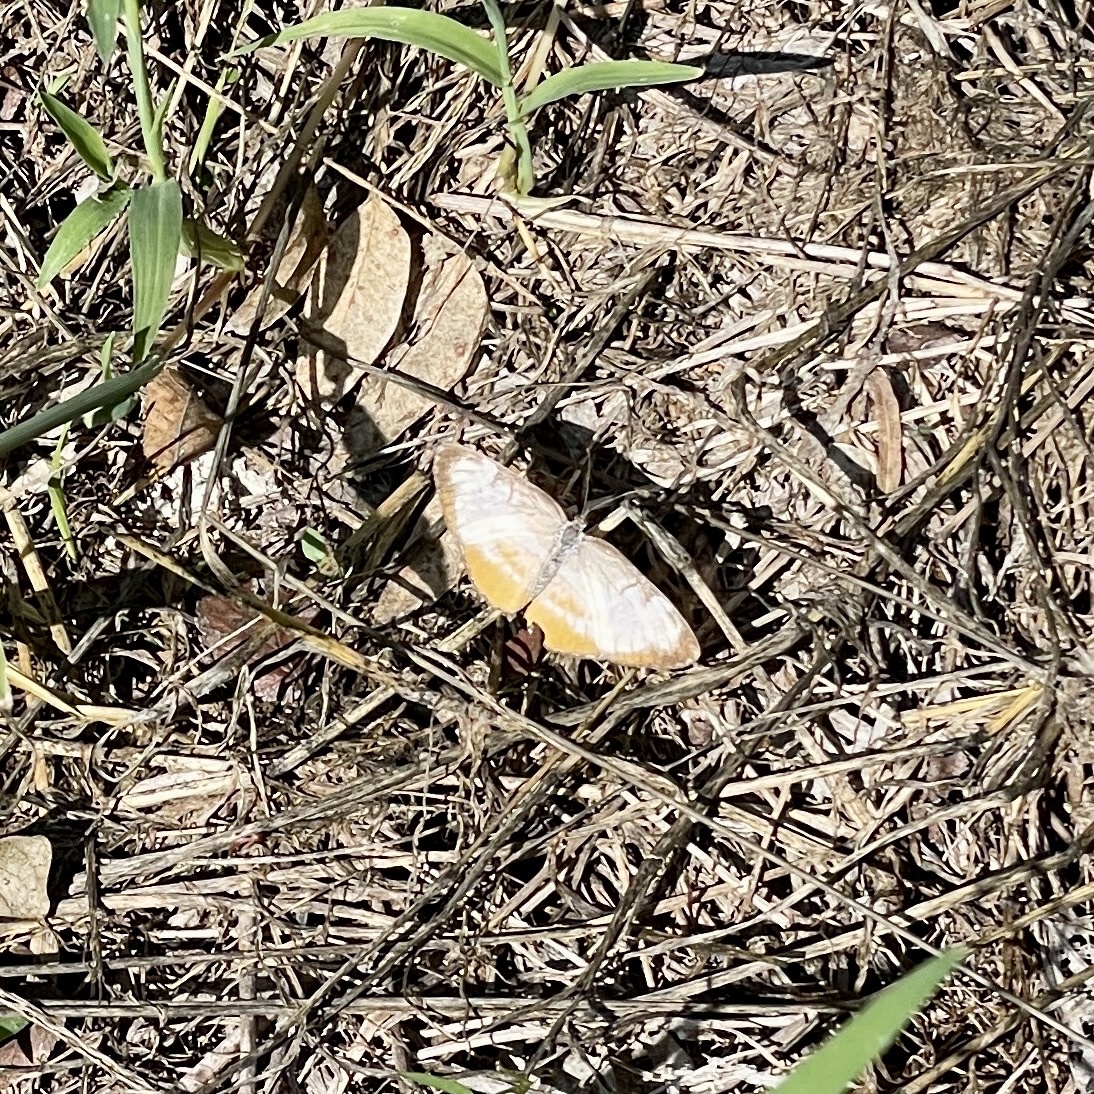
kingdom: Animalia
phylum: Arthropoda
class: Insecta
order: Lepidoptera
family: Nymphalidae
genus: Mestra
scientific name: Mestra amymone
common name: Common mestra
